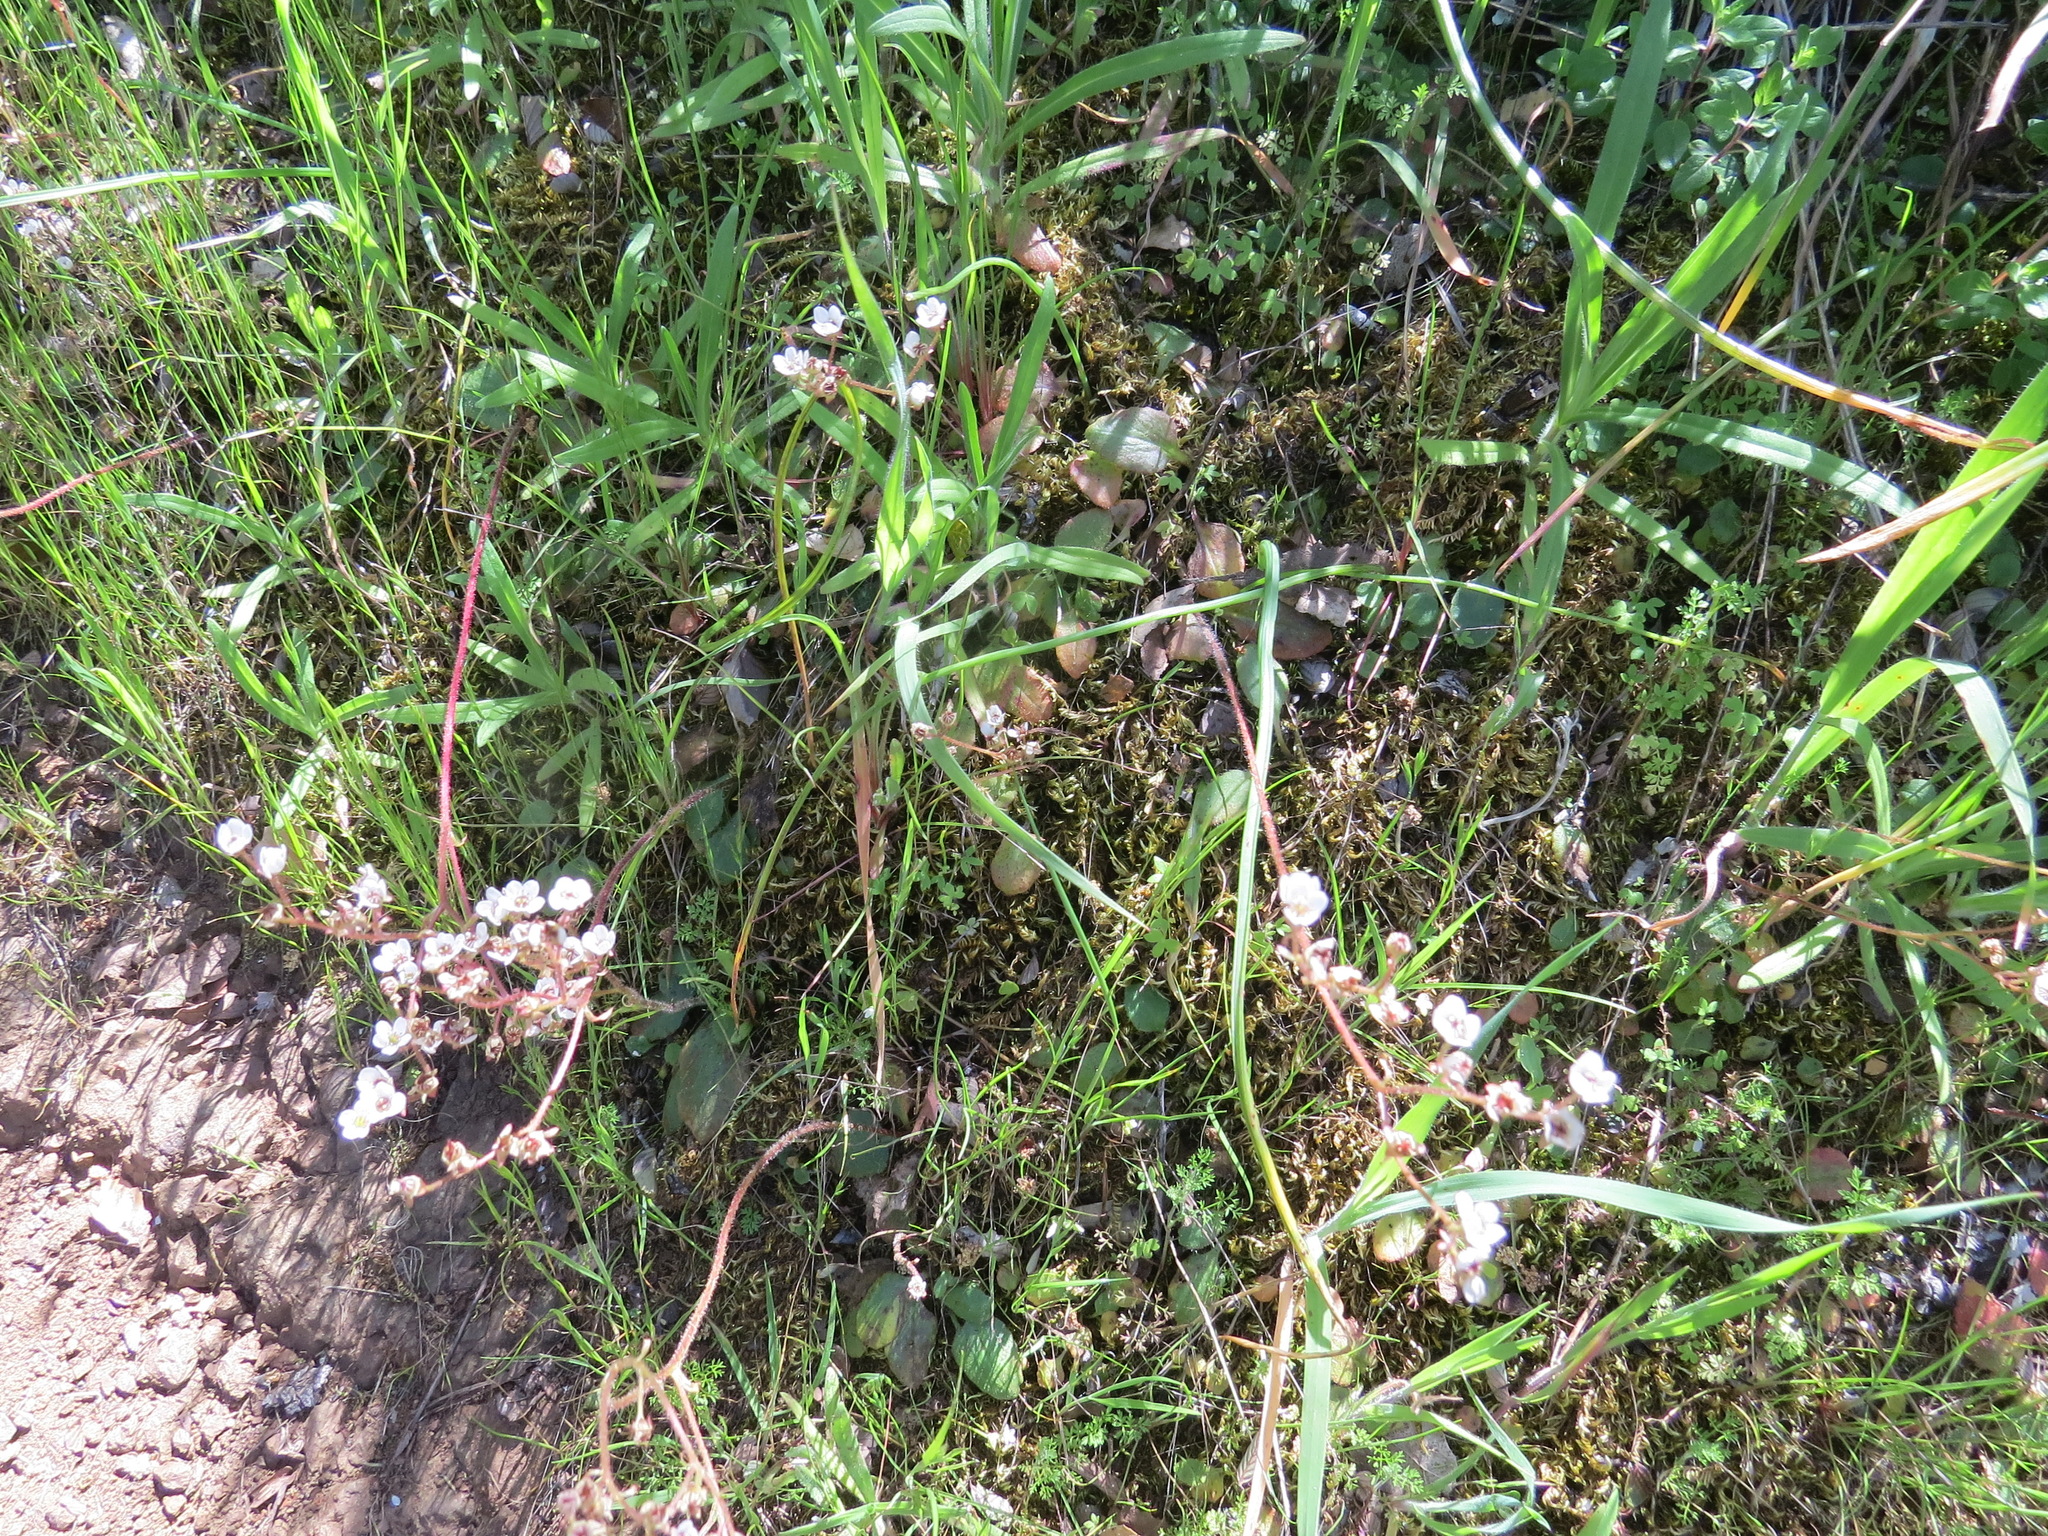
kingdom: Plantae
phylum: Tracheophyta
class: Magnoliopsida
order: Saxifragales
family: Saxifragaceae
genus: Micranthes
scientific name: Micranthes californica
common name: California saxifrage
